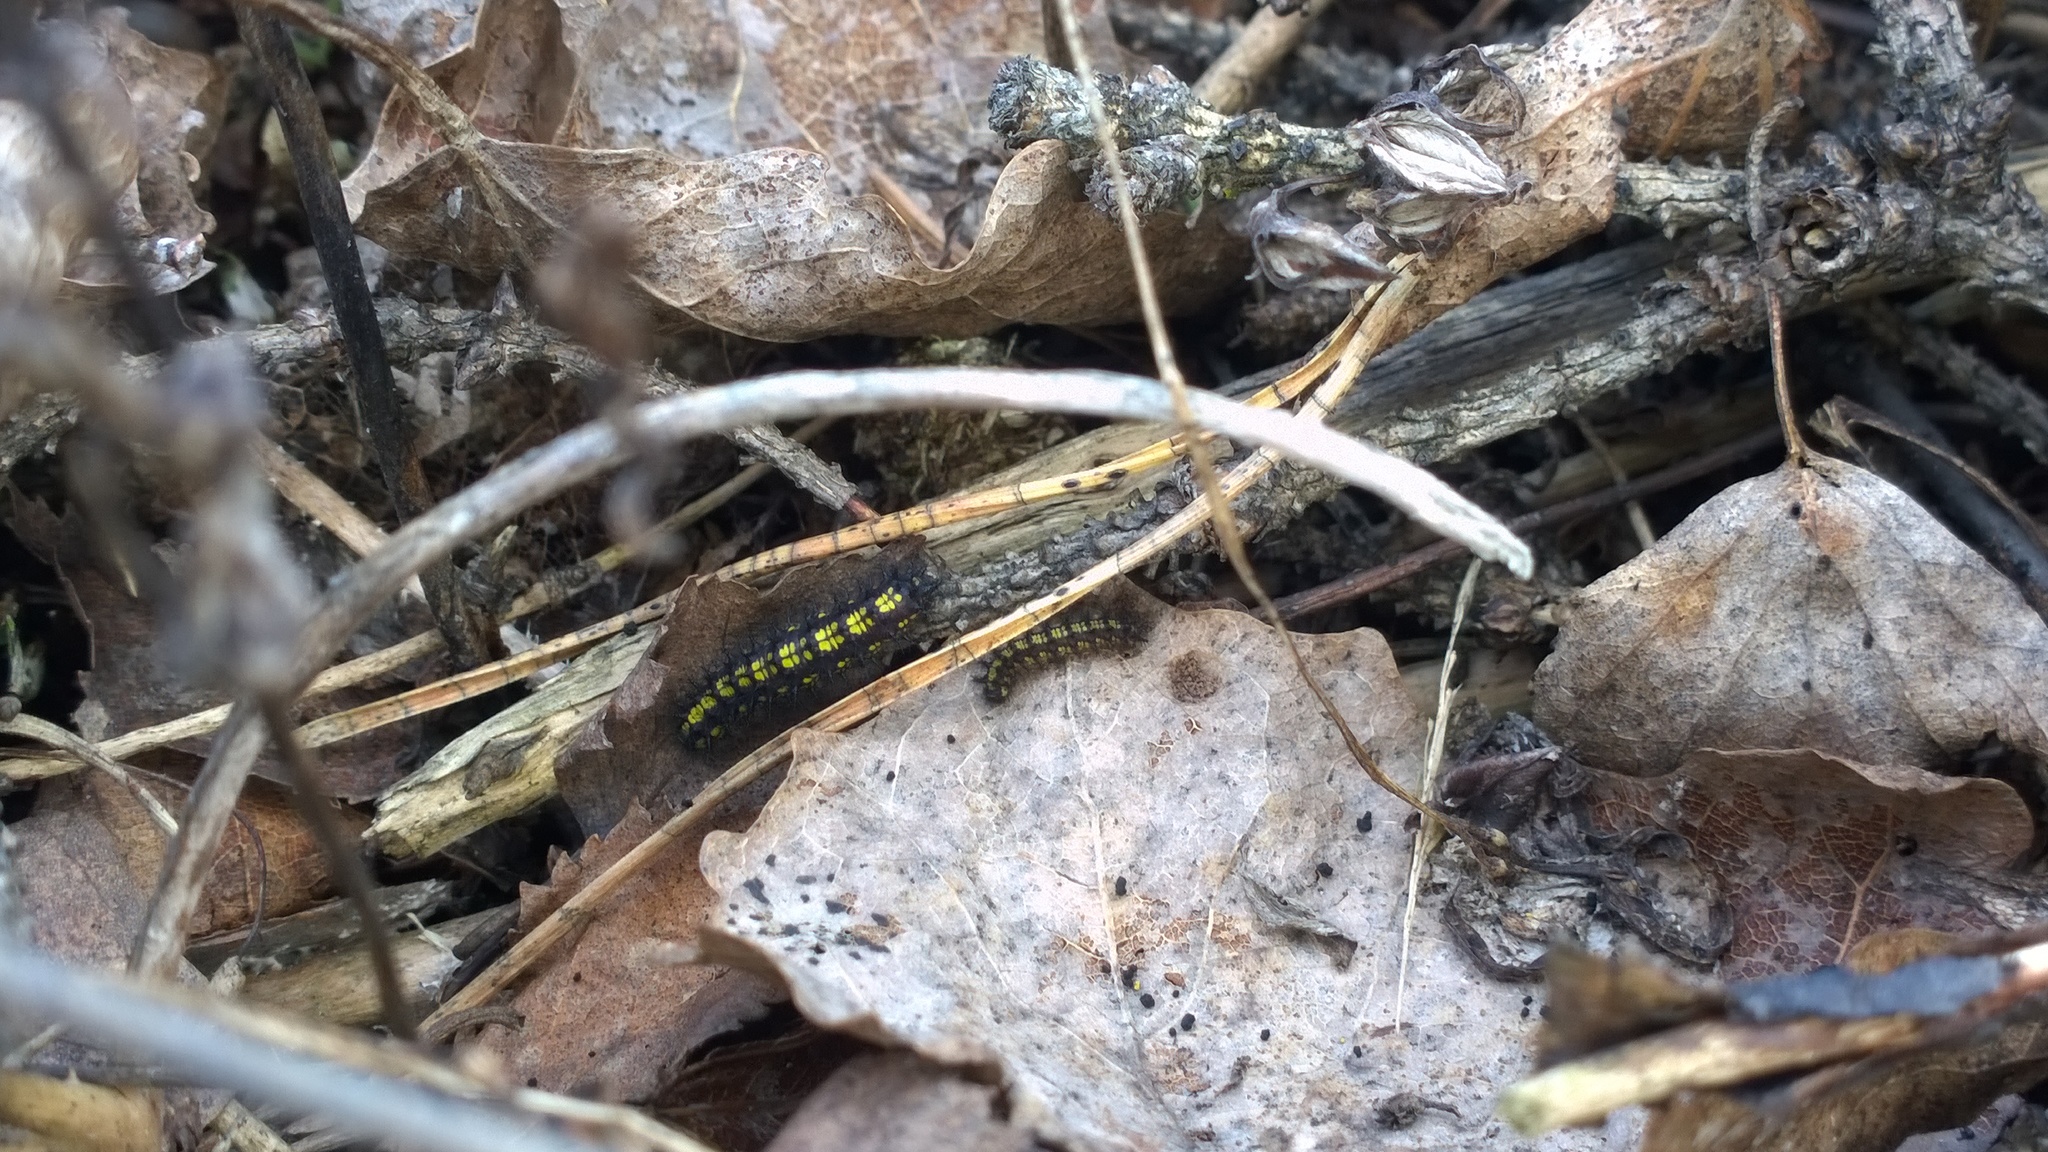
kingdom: Animalia
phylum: Arthropoda
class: Insecta
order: Lepidoptera
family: Nymphalidae
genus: Euphydryas
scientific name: Euphydryas maturna
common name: Scarce fritillary
